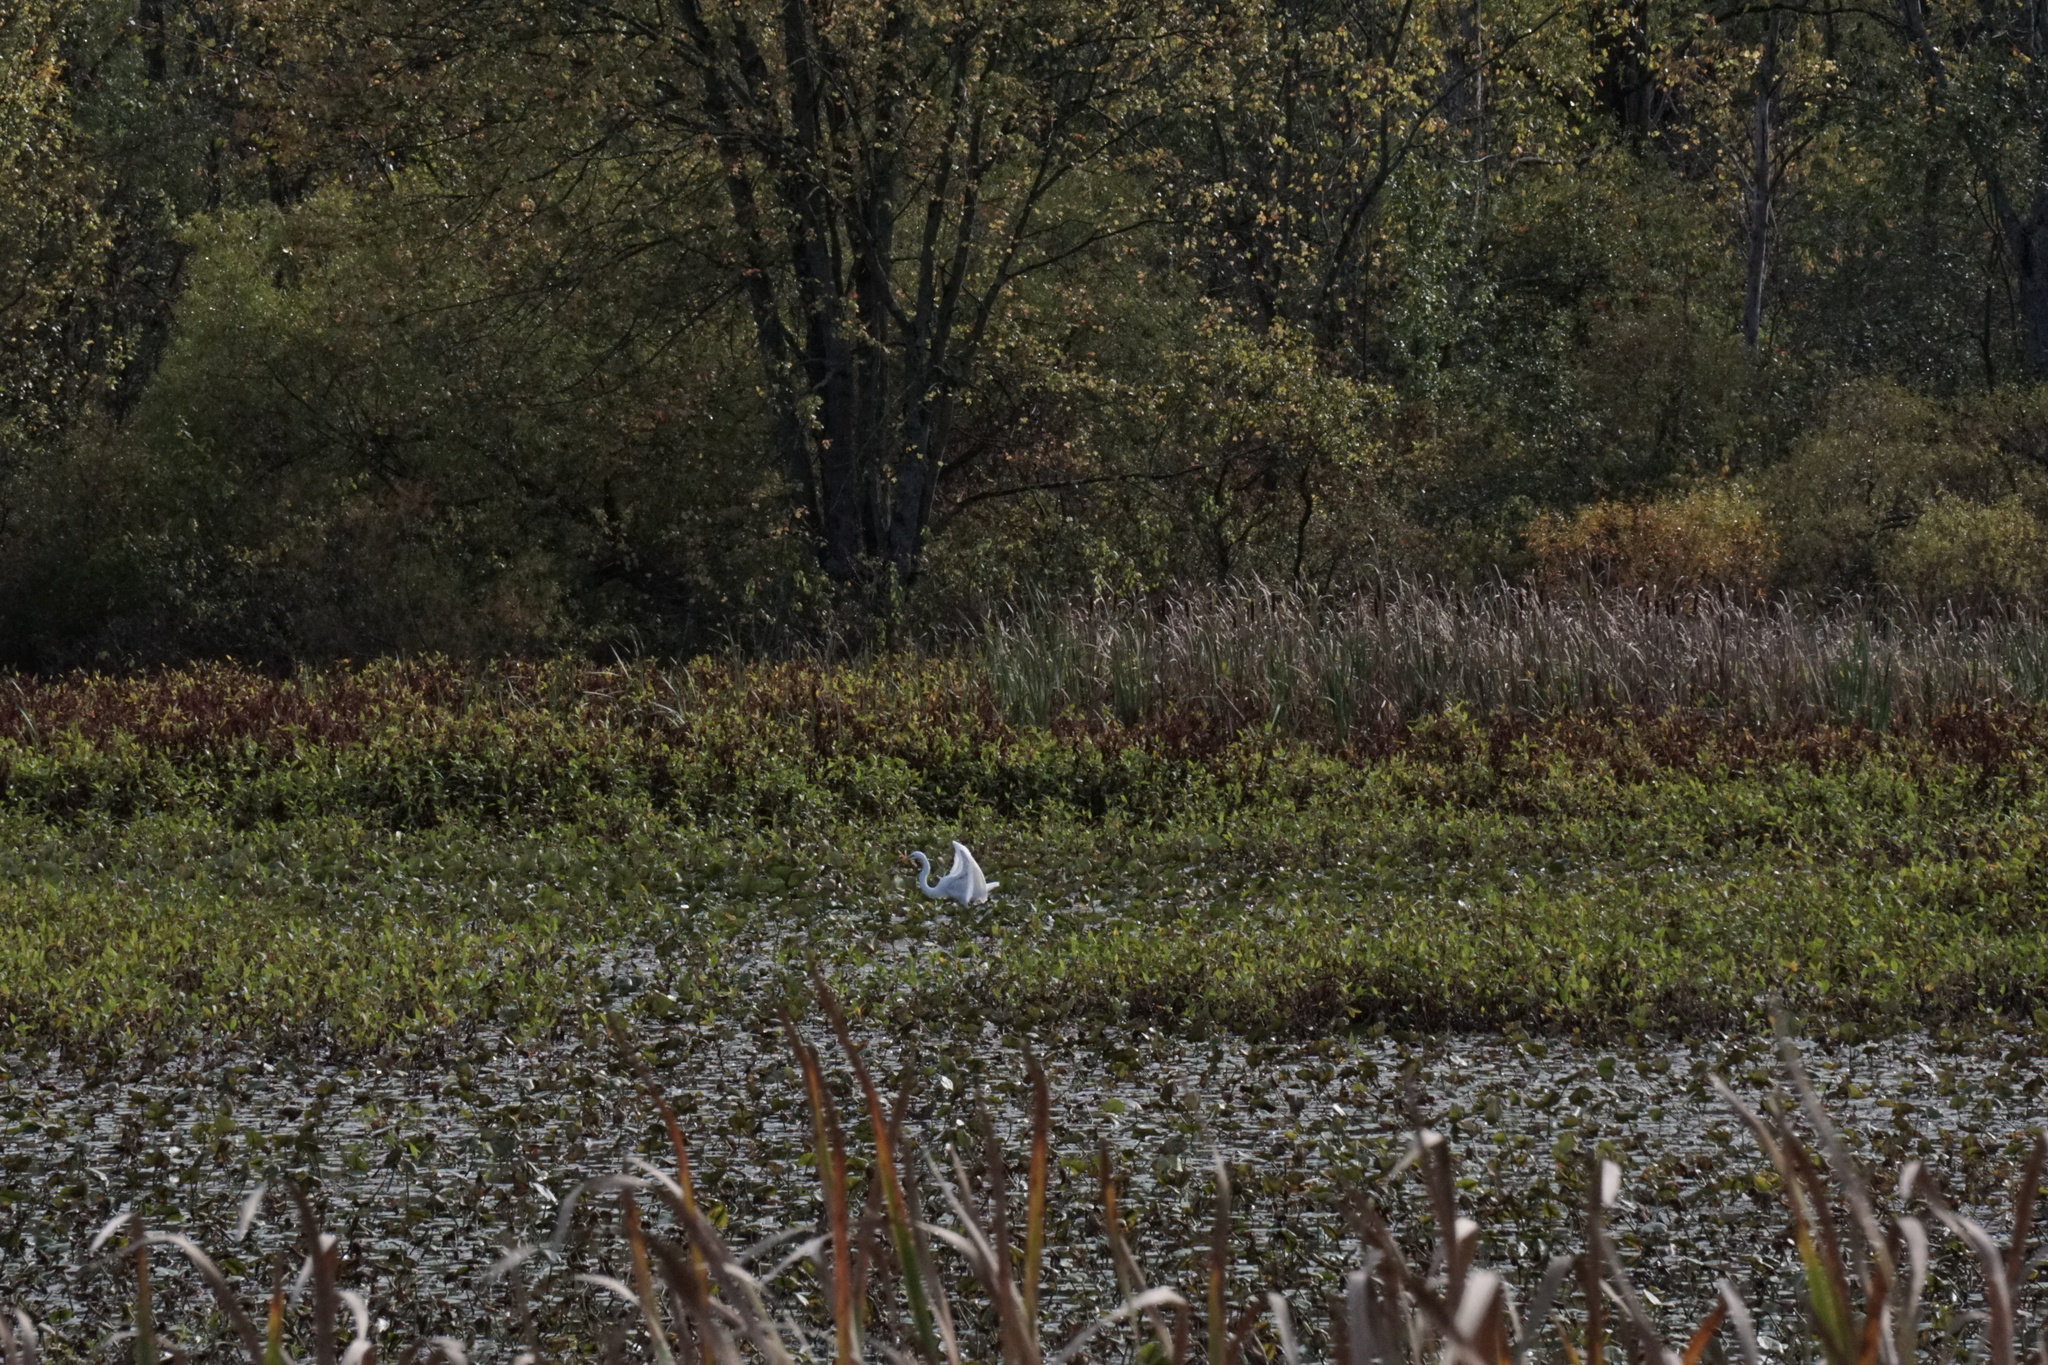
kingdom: Animalia
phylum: Chordata
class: Aves
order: Pelecaniformes
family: Ardeidae
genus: Ardea
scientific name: Ardea alba
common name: Great egret
